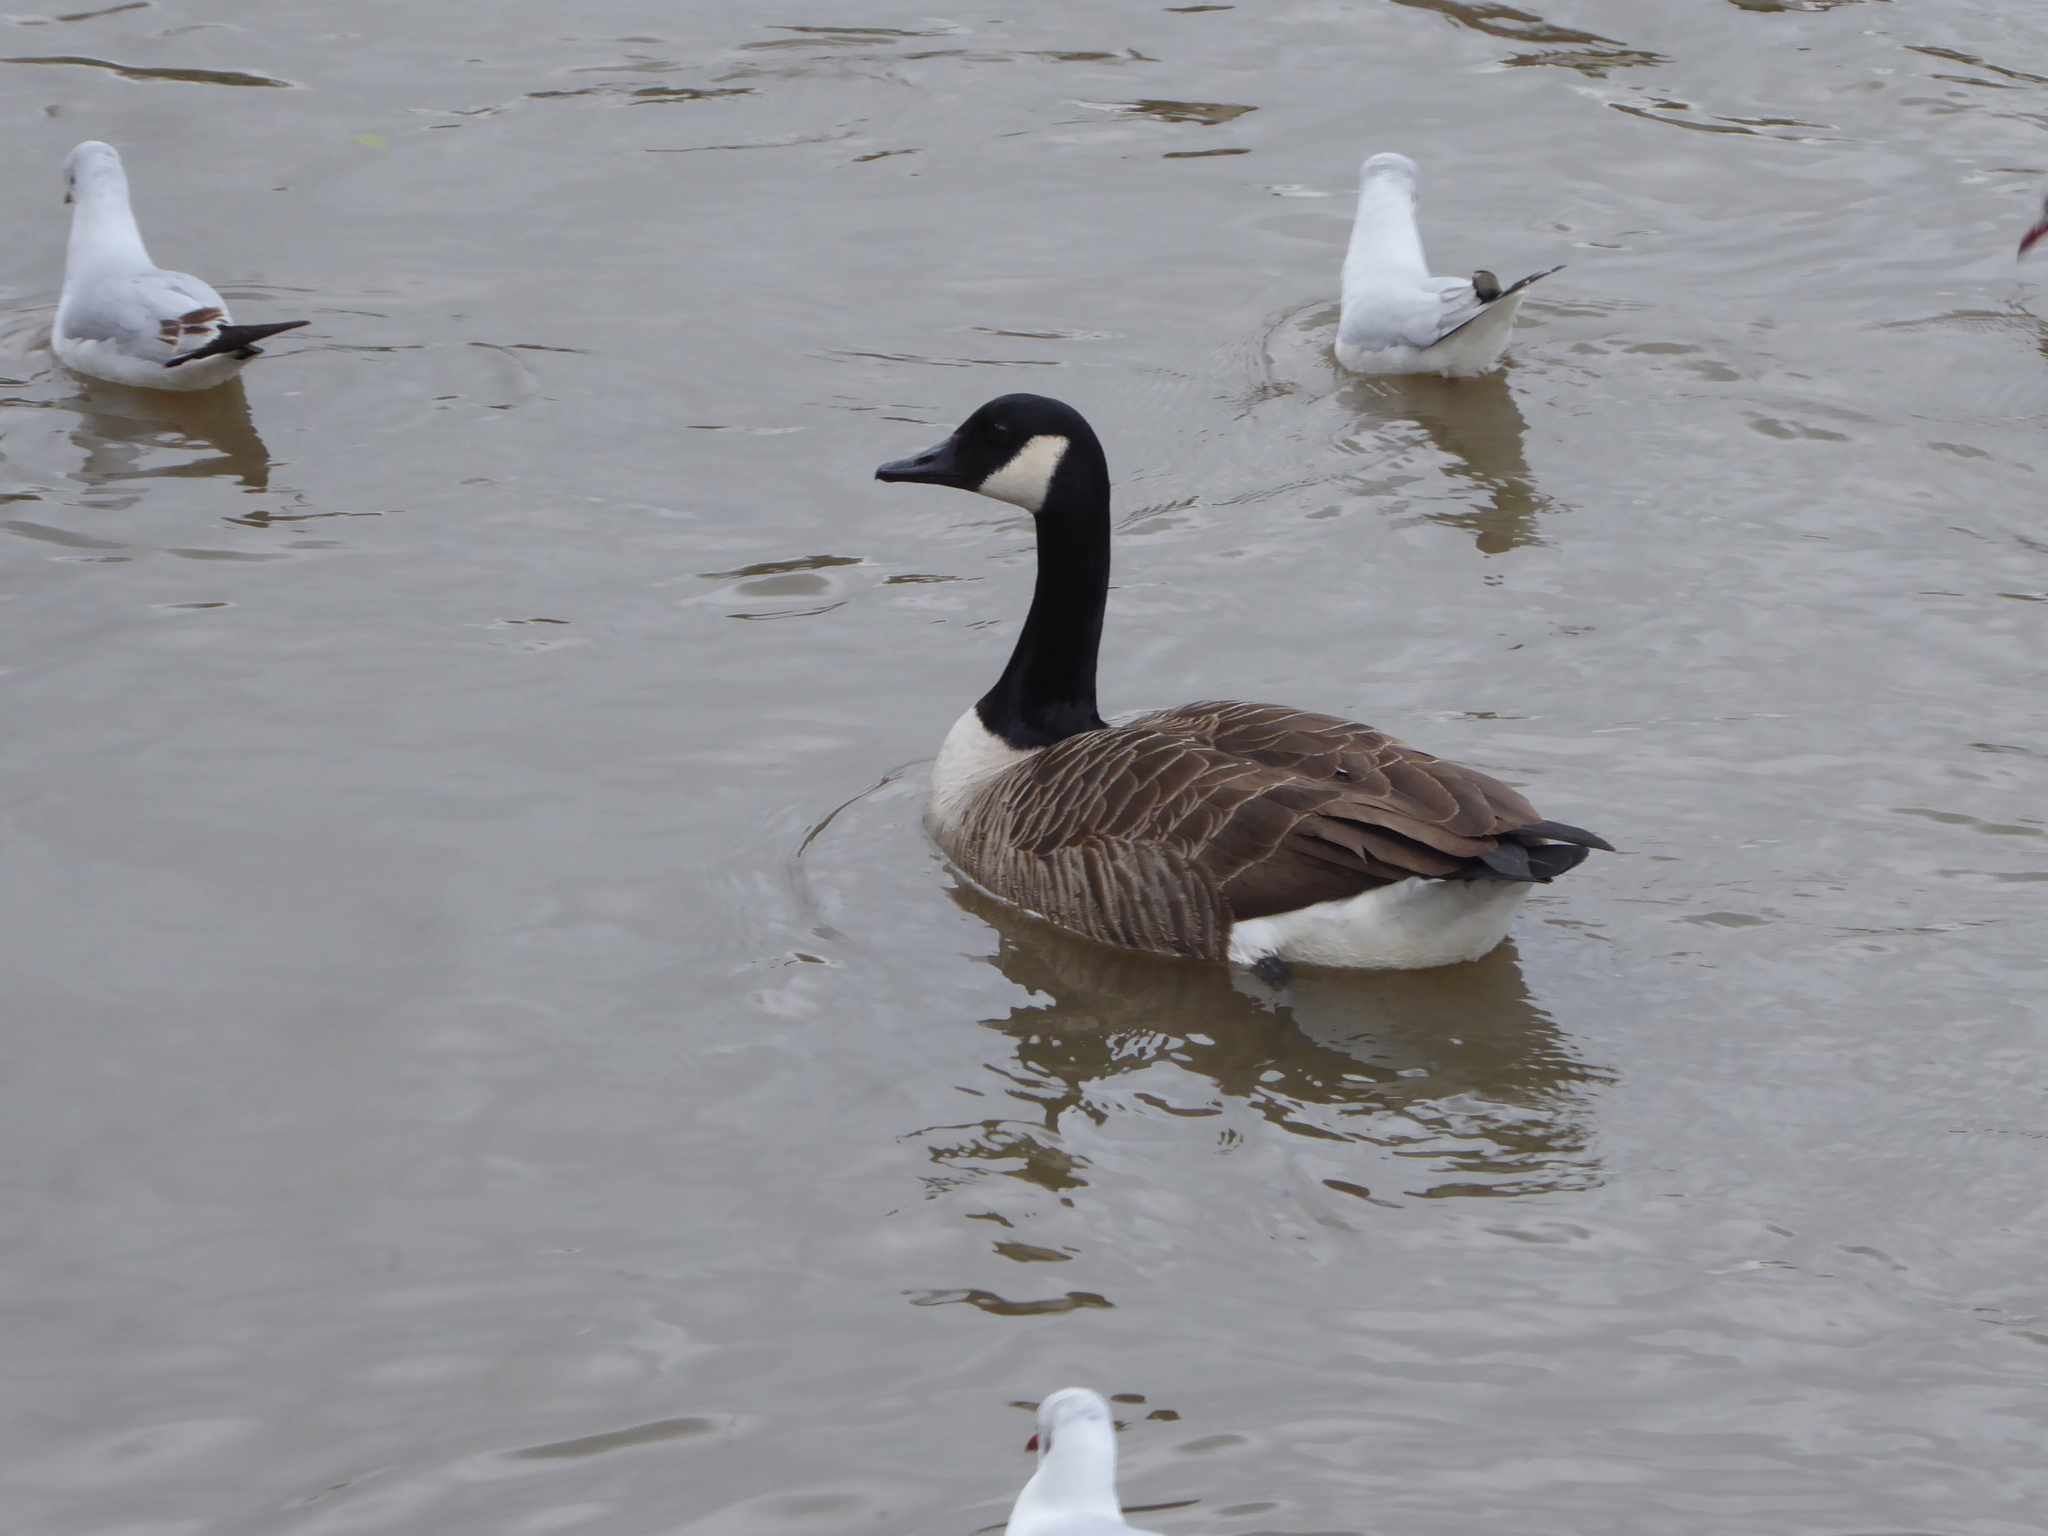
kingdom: Animalia
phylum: Chordata
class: Aves
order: Anseriformes
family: Anatidae
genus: Branta
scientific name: Branta canadensis
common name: Canada goose
